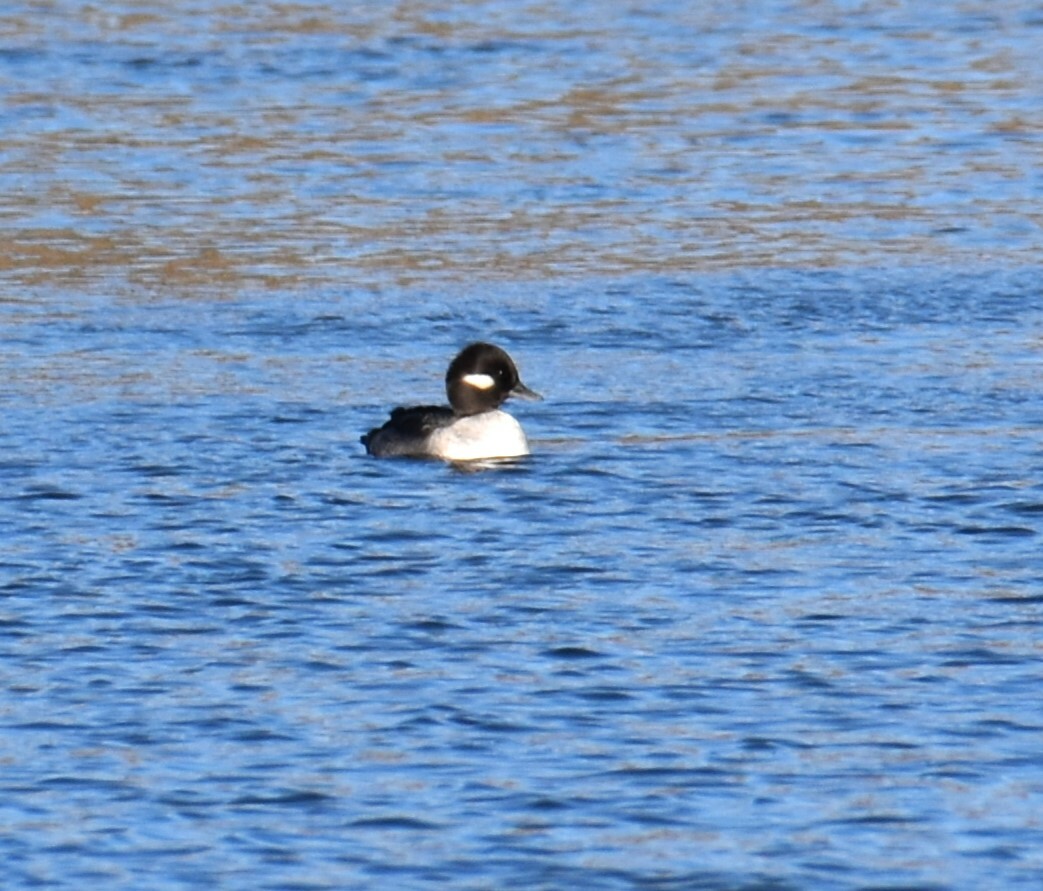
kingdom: Animalia
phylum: Chordata
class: Aves
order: Anseriformes
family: Anatidae
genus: Bucephala
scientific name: Bucephala albeola
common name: Bufflehead
